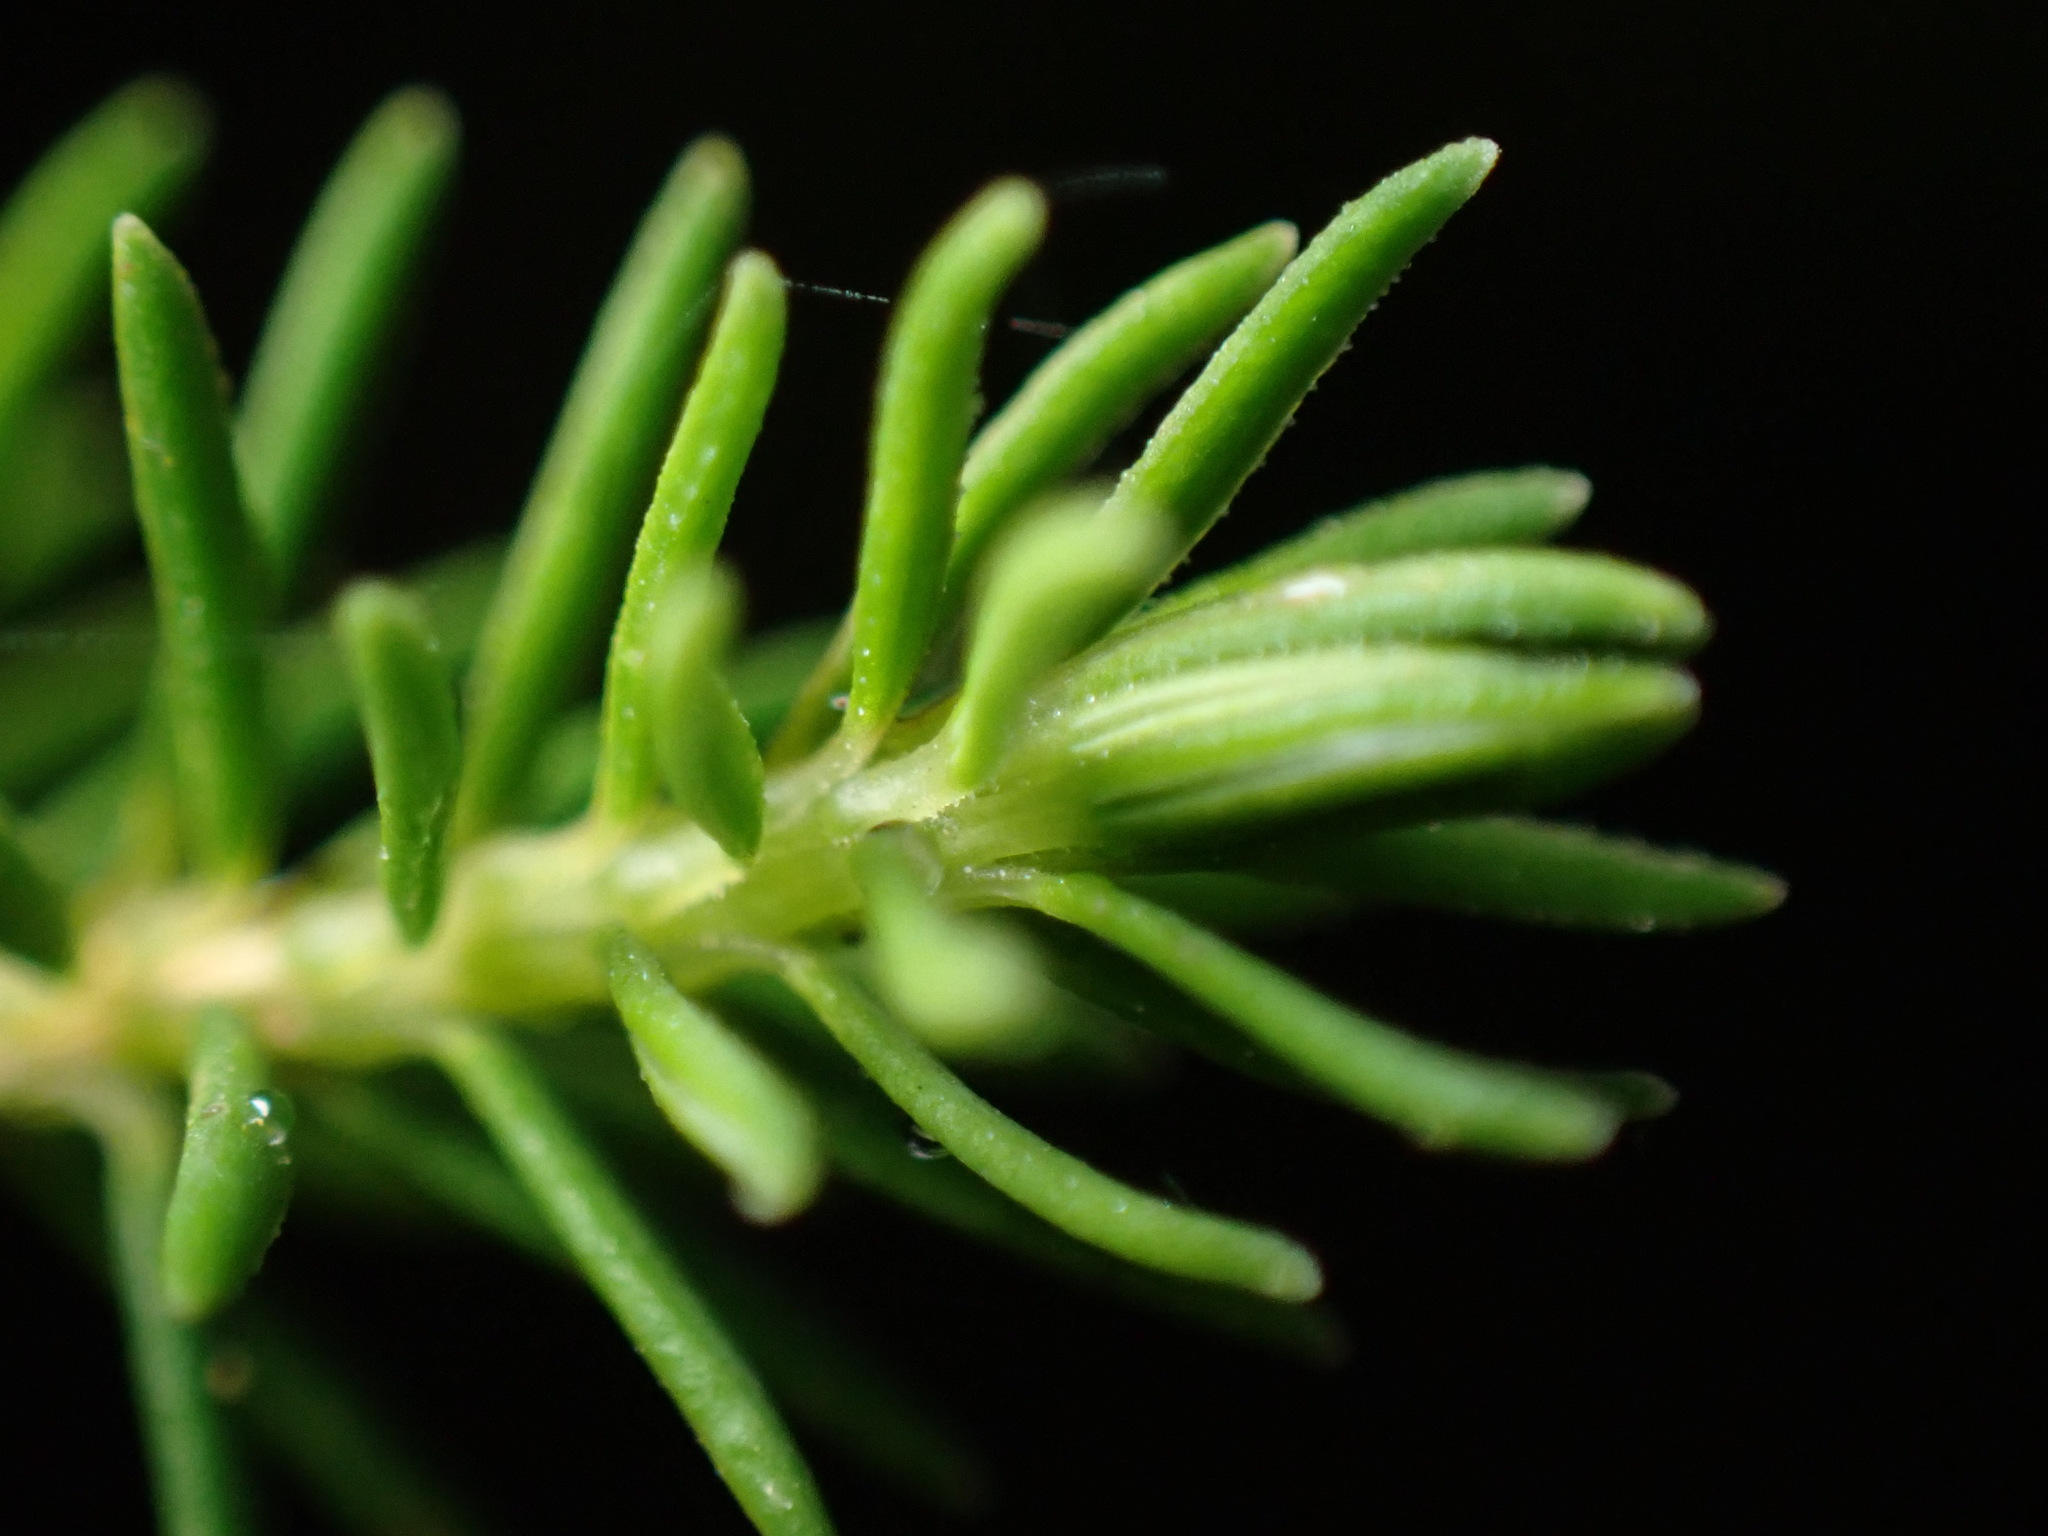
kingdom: Plantae
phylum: Tracheophyta
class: Magnoliopsida
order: Ericales
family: Ericaceae
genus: Erica
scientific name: Erica platycodon
